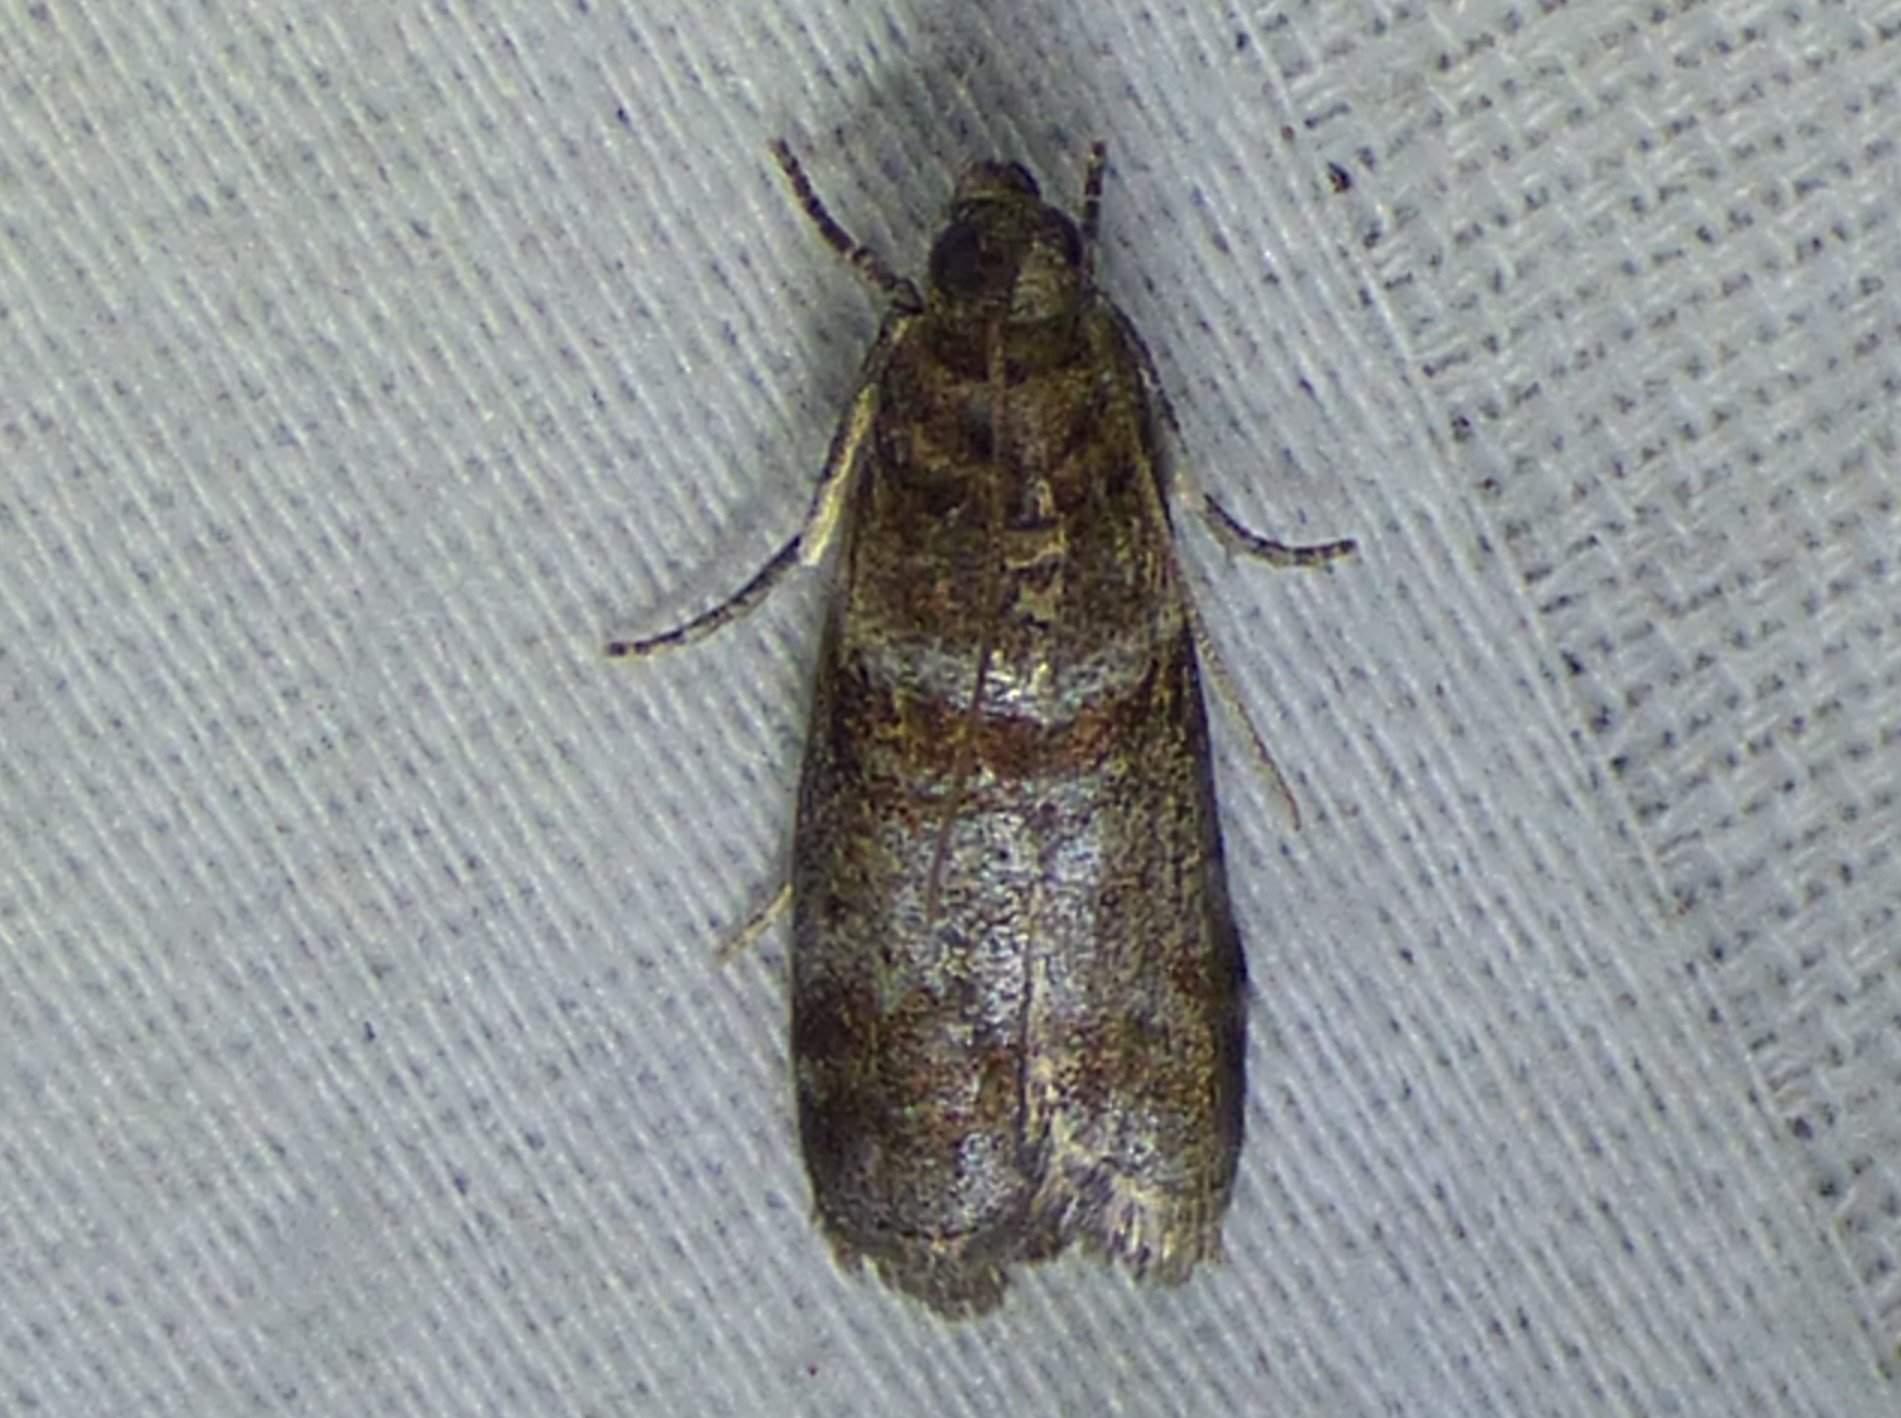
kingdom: Animalia
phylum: Arthropoda
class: Insecta
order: Lepidoptera
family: Pyralidae
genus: Sciota
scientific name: Sciota uvinella
